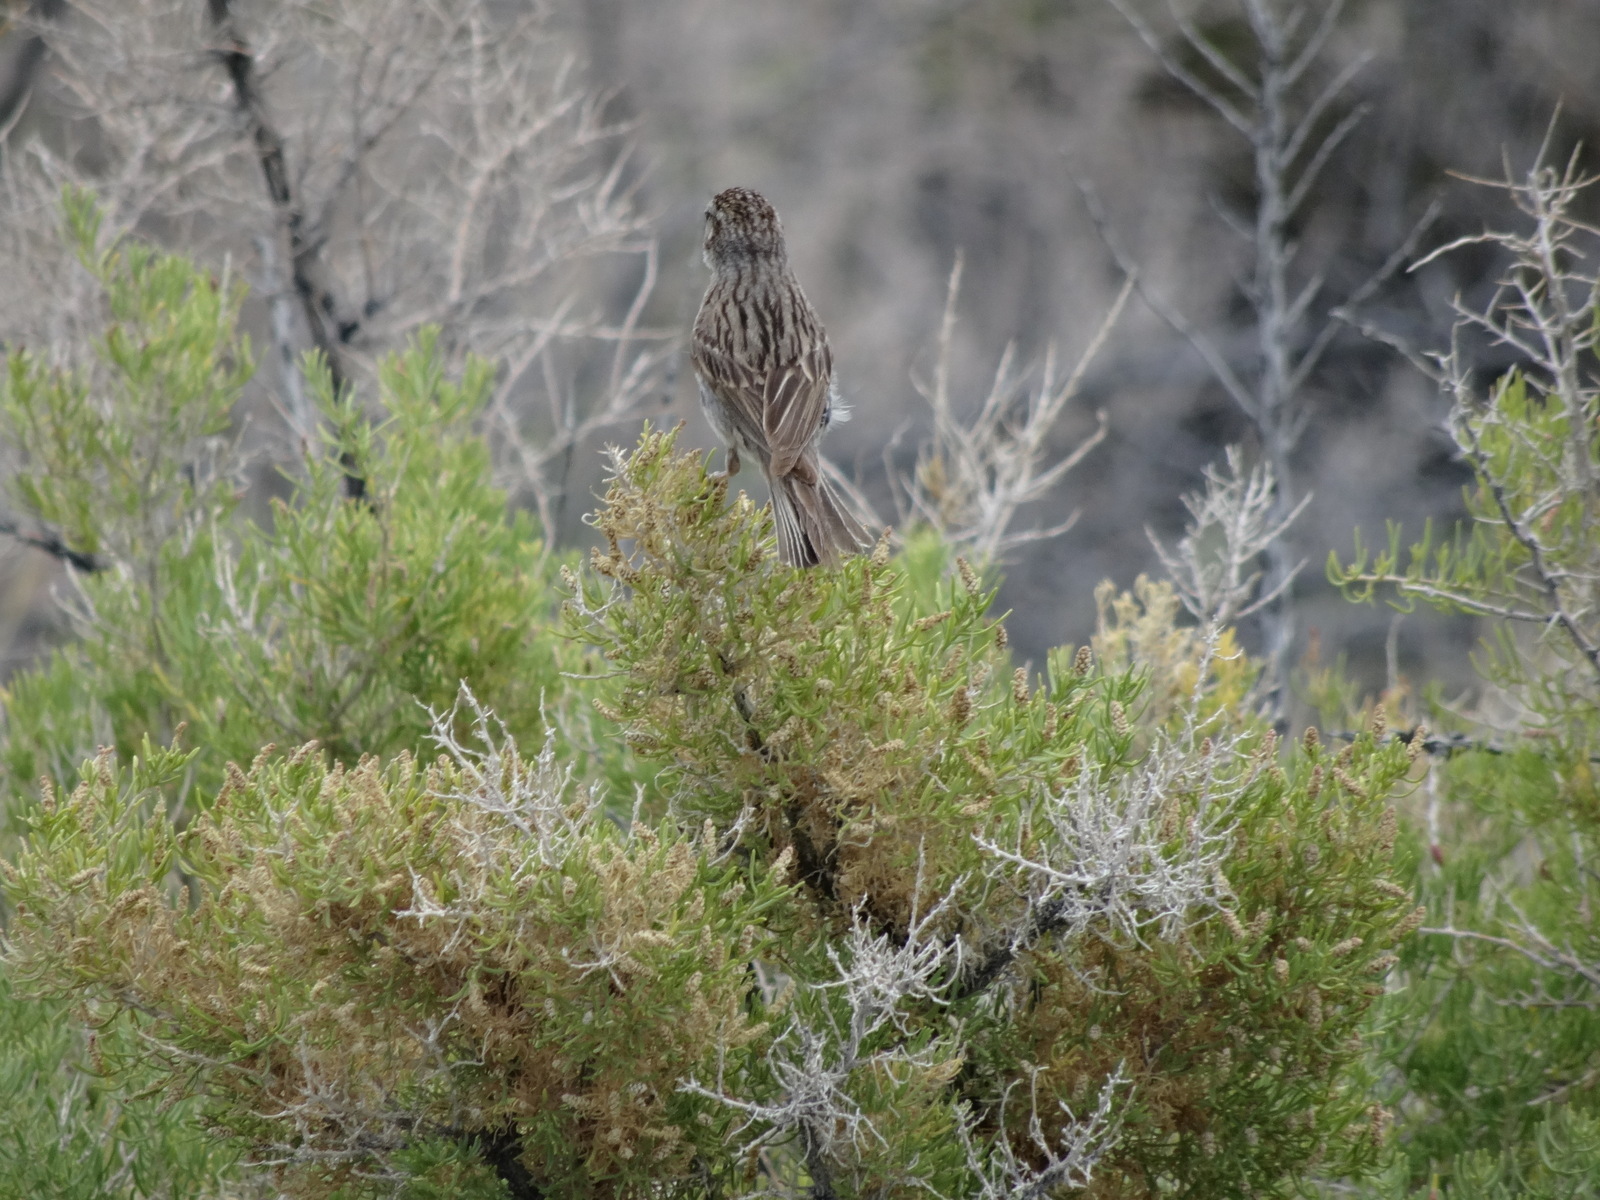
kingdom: Animalia
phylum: Chordata
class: Aves
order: Passeriformes
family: Passerellidae
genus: Spizella
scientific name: Spizella breweri
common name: Brewer's sparrow
